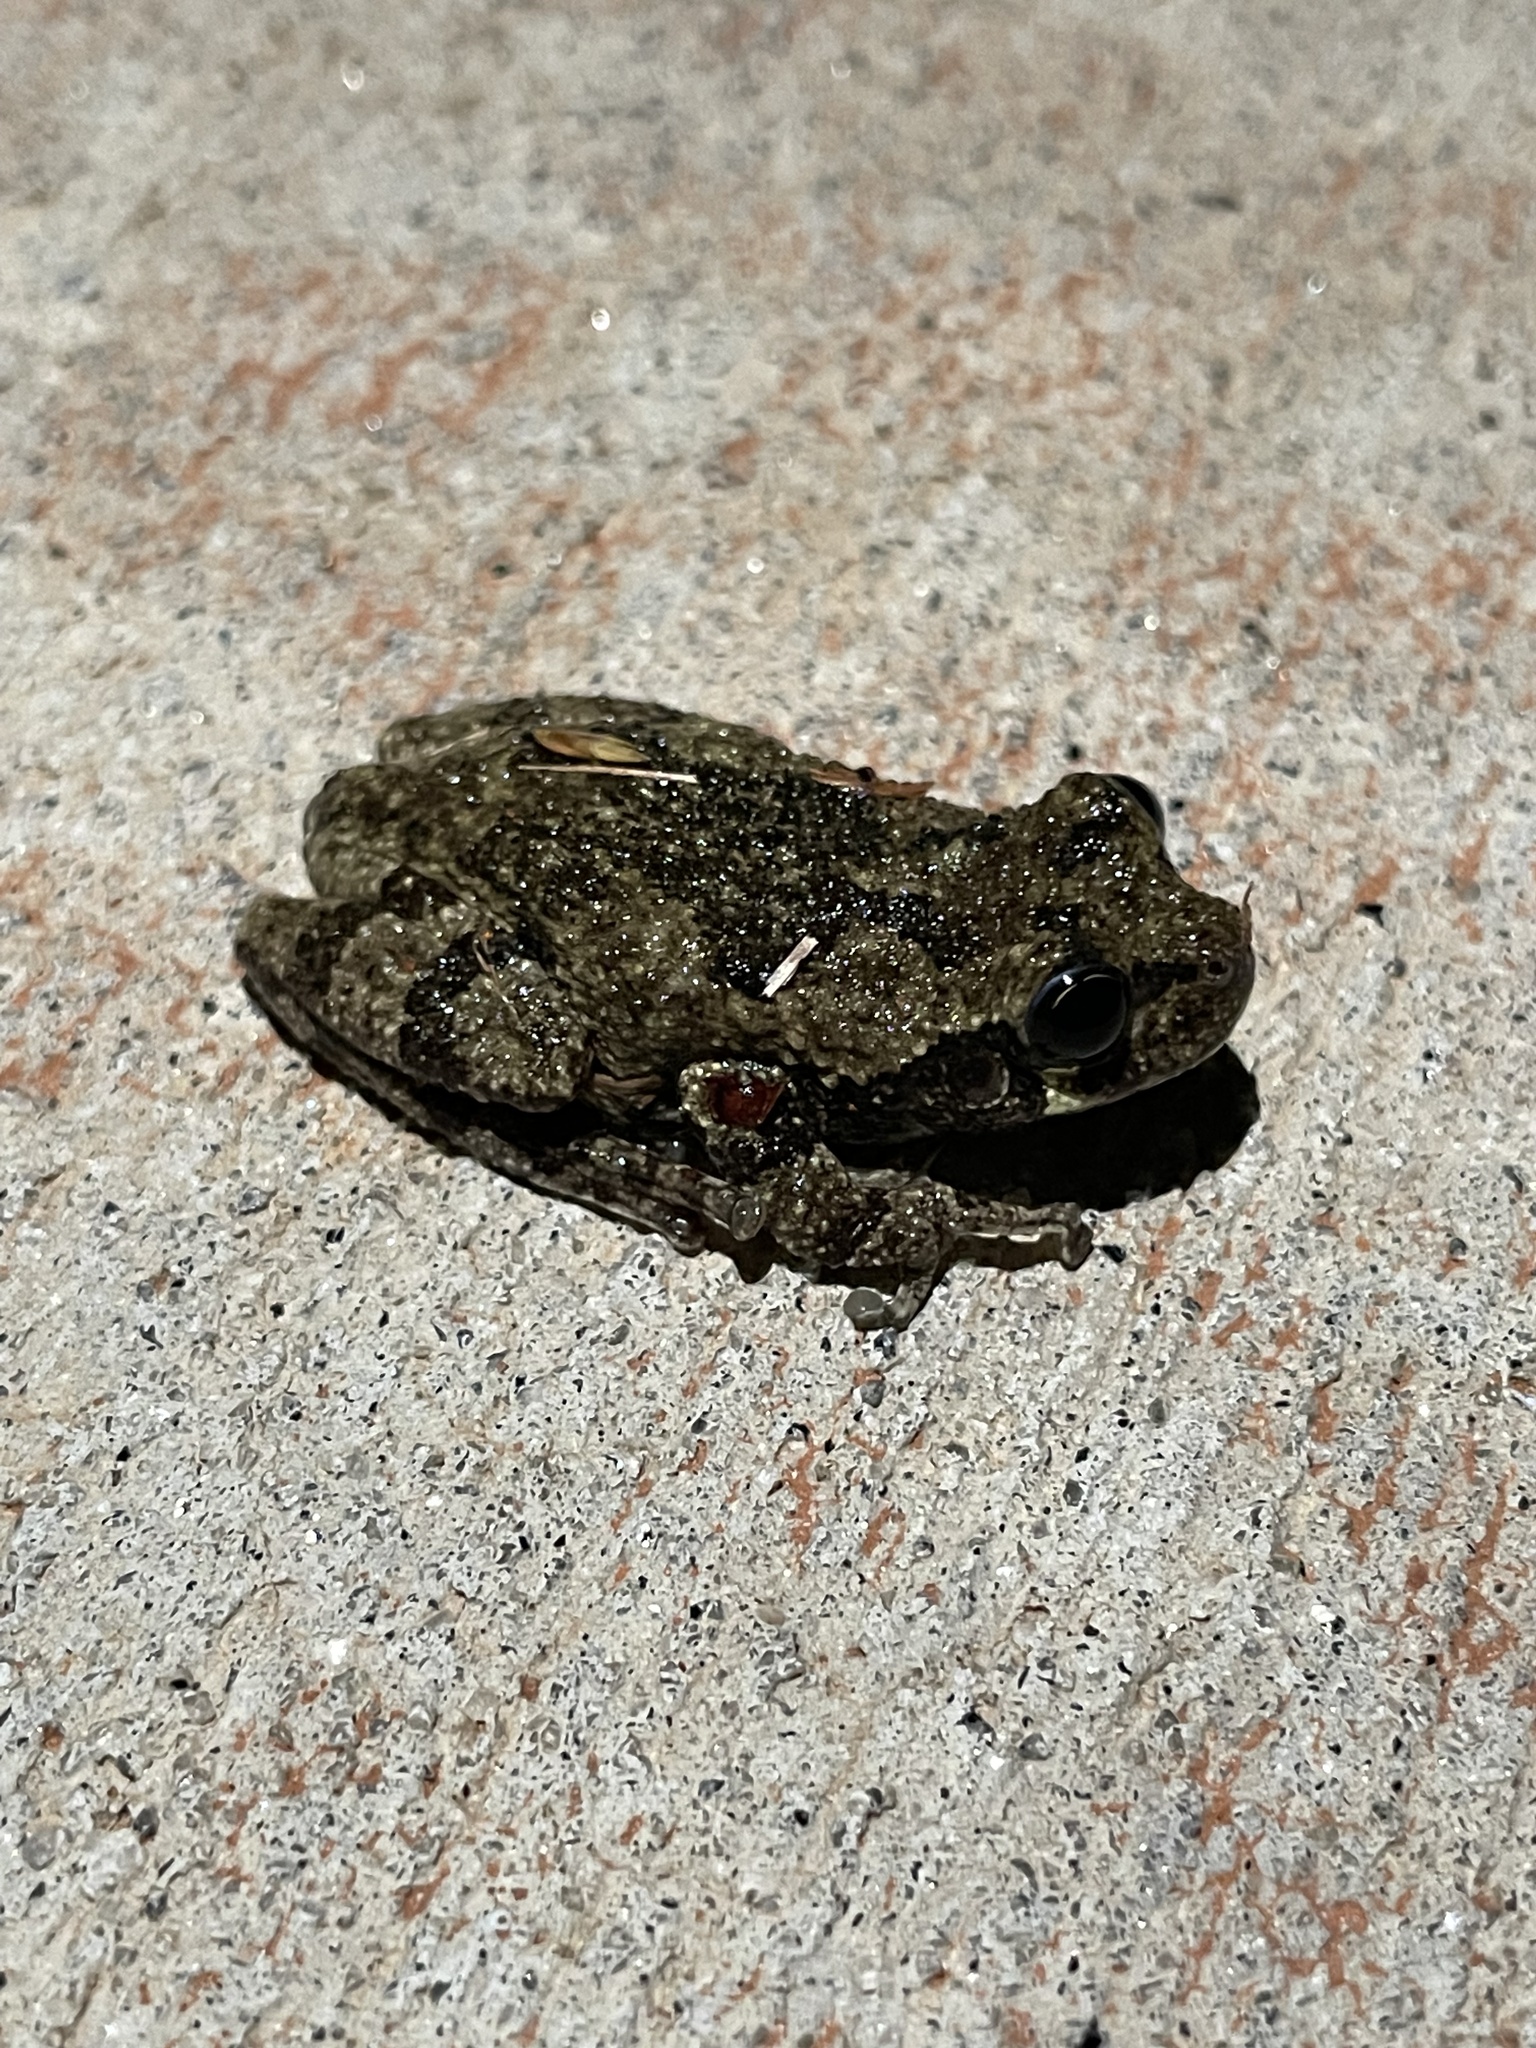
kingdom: Animalia
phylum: Chordata
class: Amphibia
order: Anura
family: Hylidae
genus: Dryophytes
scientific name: Dryophytes chrysoscelis
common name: Cope's gray treefrog
